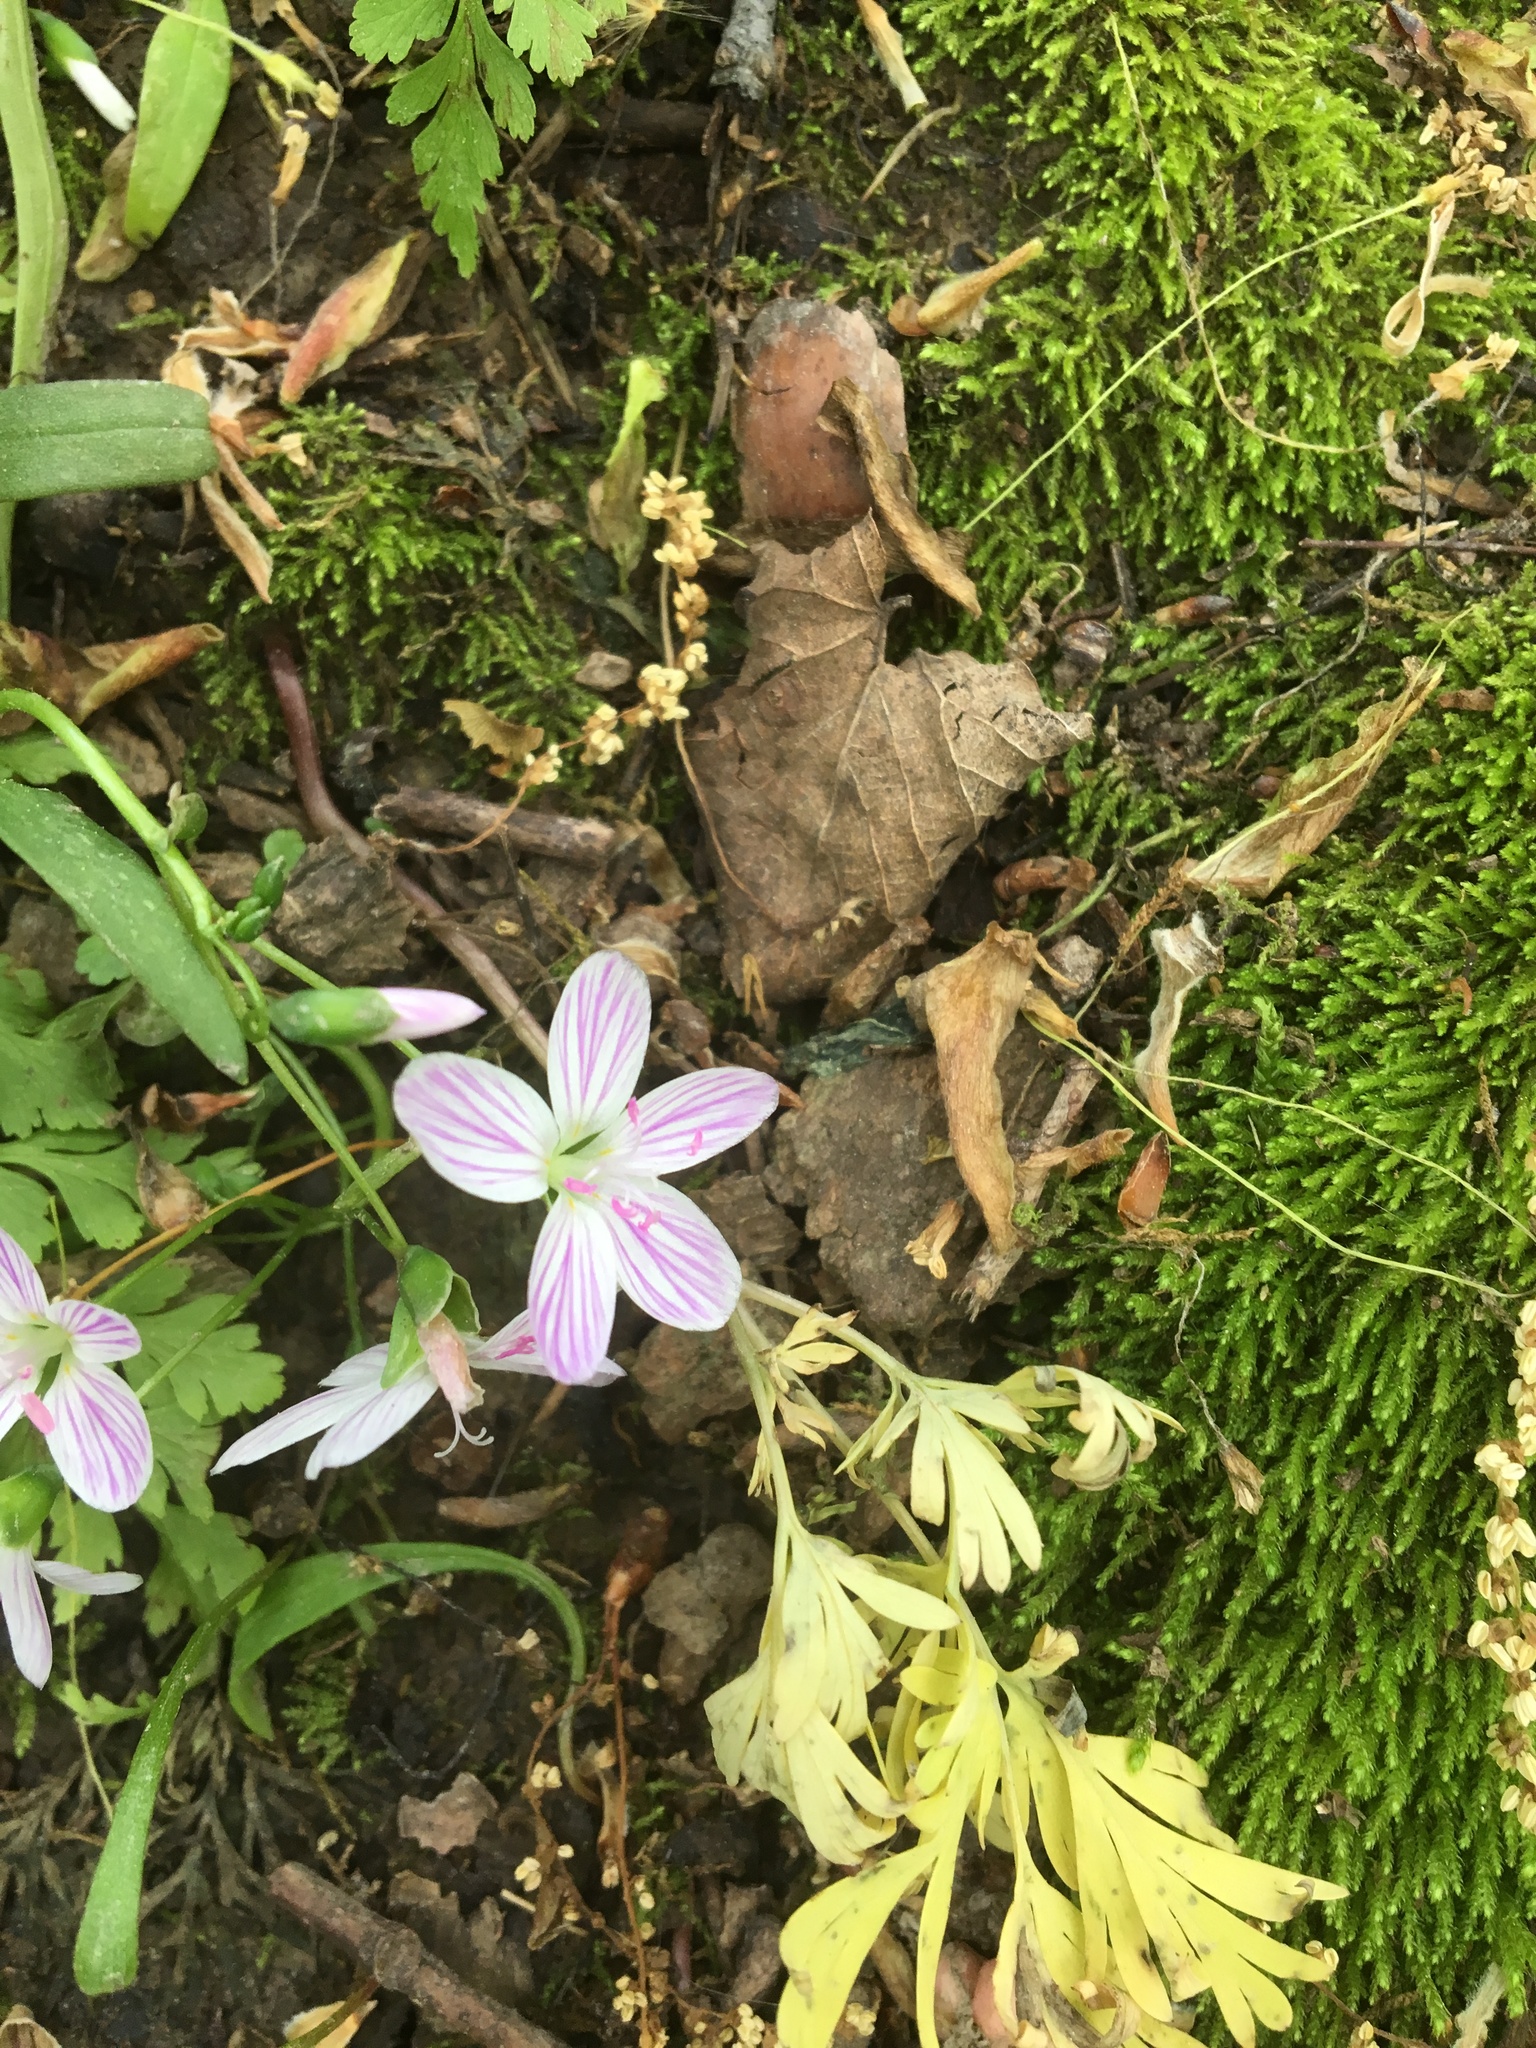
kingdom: Plantae
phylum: Tracheophyta
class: Magnoliopsida
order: Caryophyllales
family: Montiaceae
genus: Claytonia
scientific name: Claytonia virginica
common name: Virginia springbeauty
